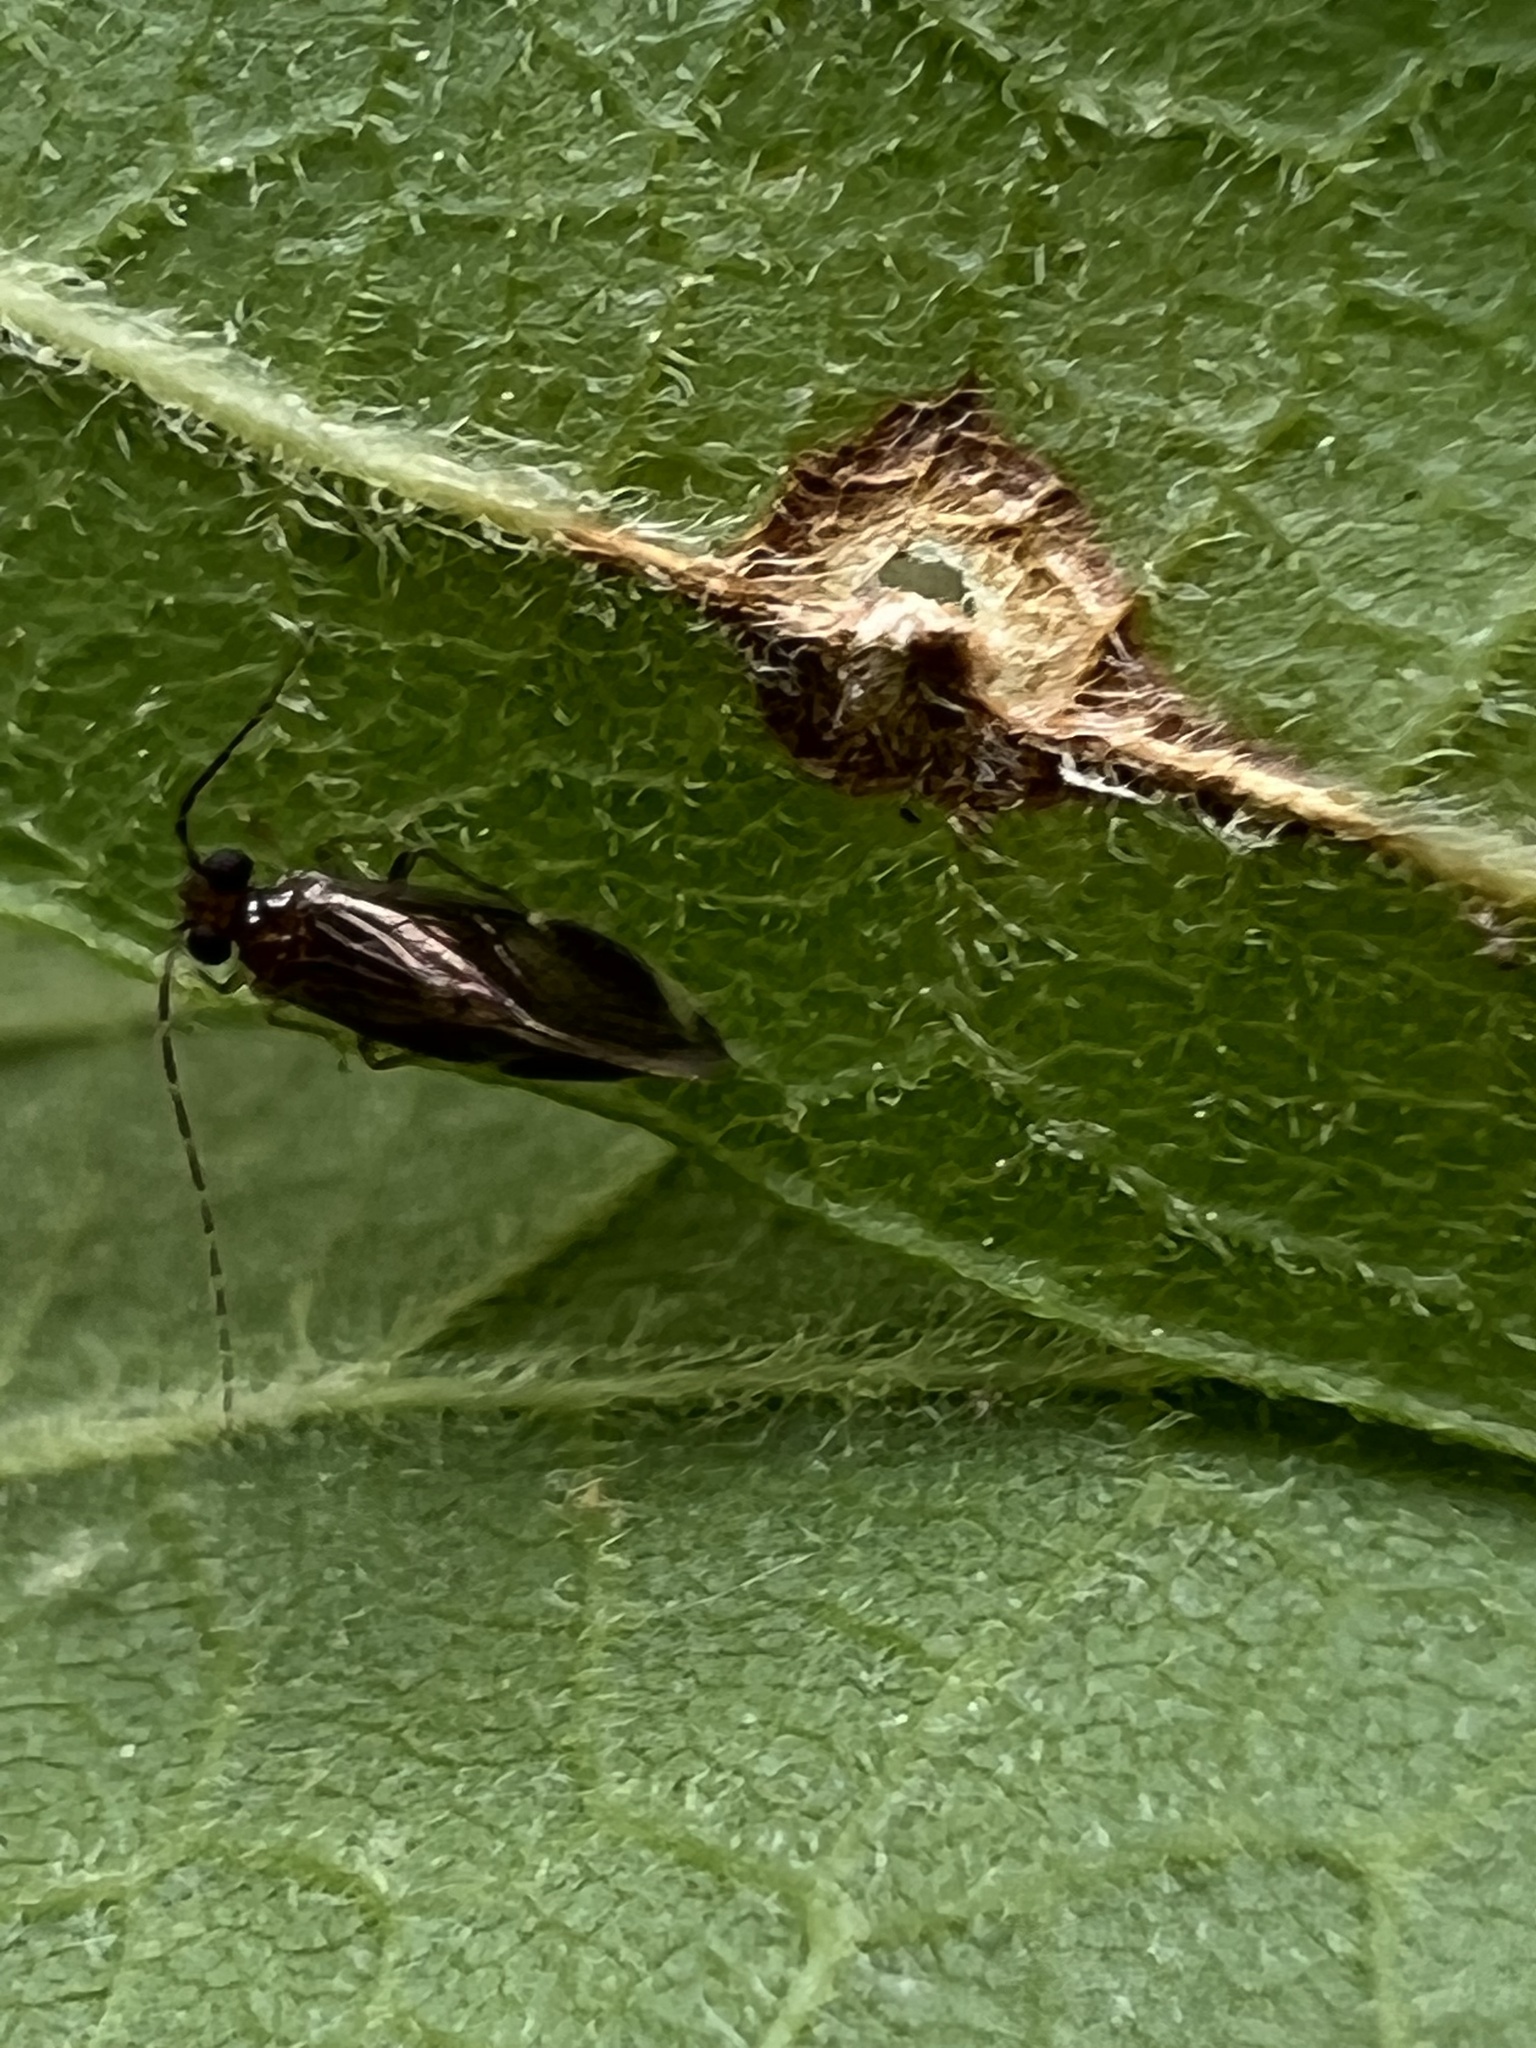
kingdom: Animalia
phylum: Arthropoda
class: Insecta
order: Psocodea
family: Amphipsocidae
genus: Polypsocus
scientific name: Polypsocus corruptus
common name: Corrupt barklouse
